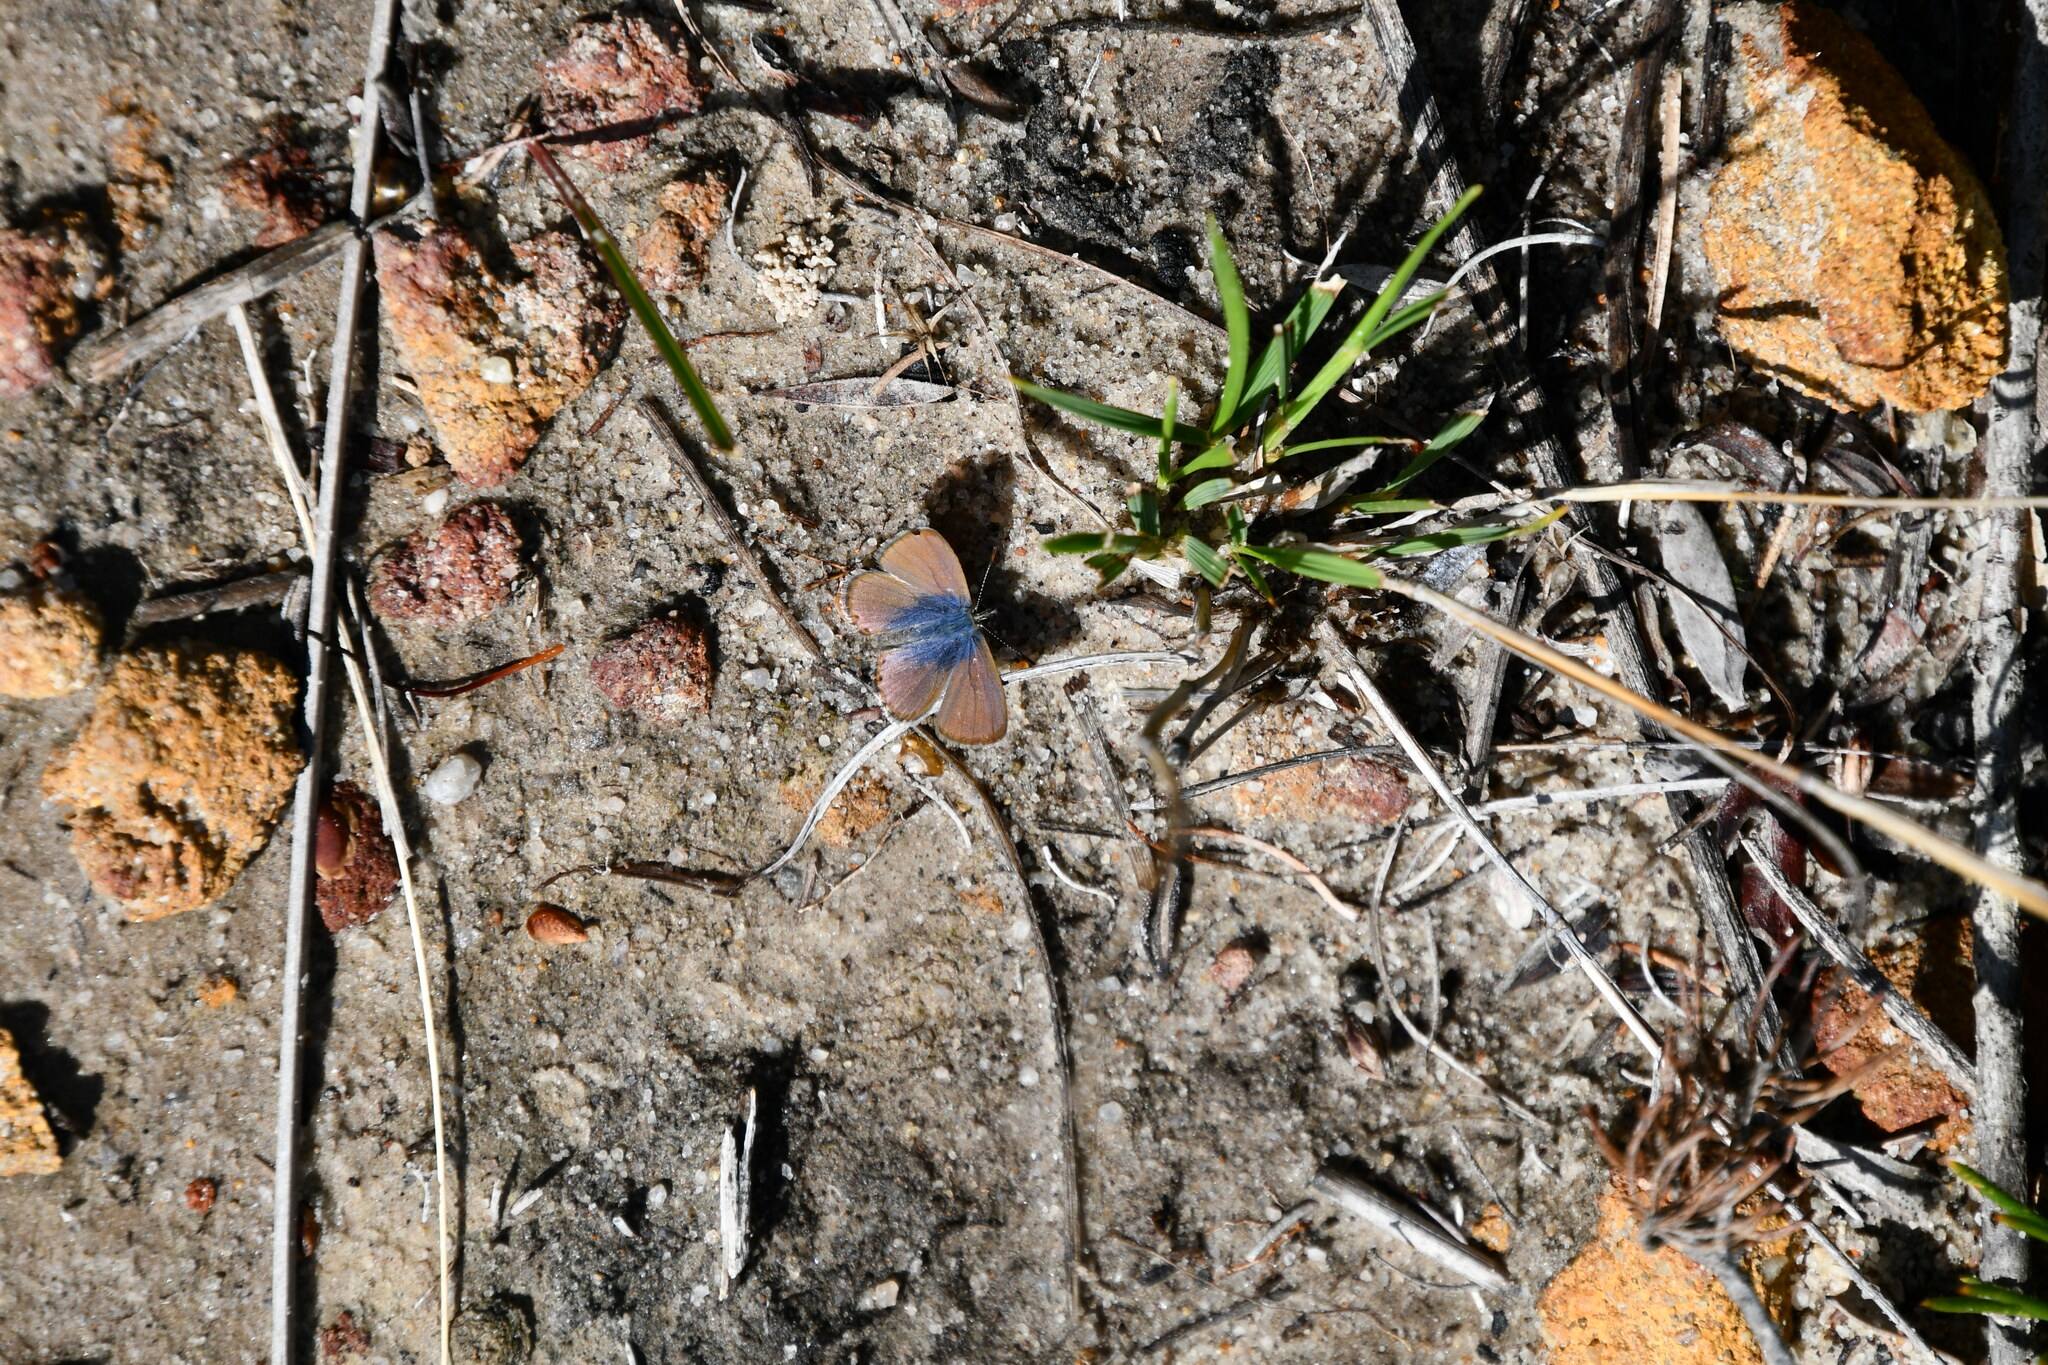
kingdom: Animalia
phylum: Arthropoda
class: Insecta
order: Lepidoptera
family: Lycaenidae
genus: Nacaduba
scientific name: Nacaduba biocellata
